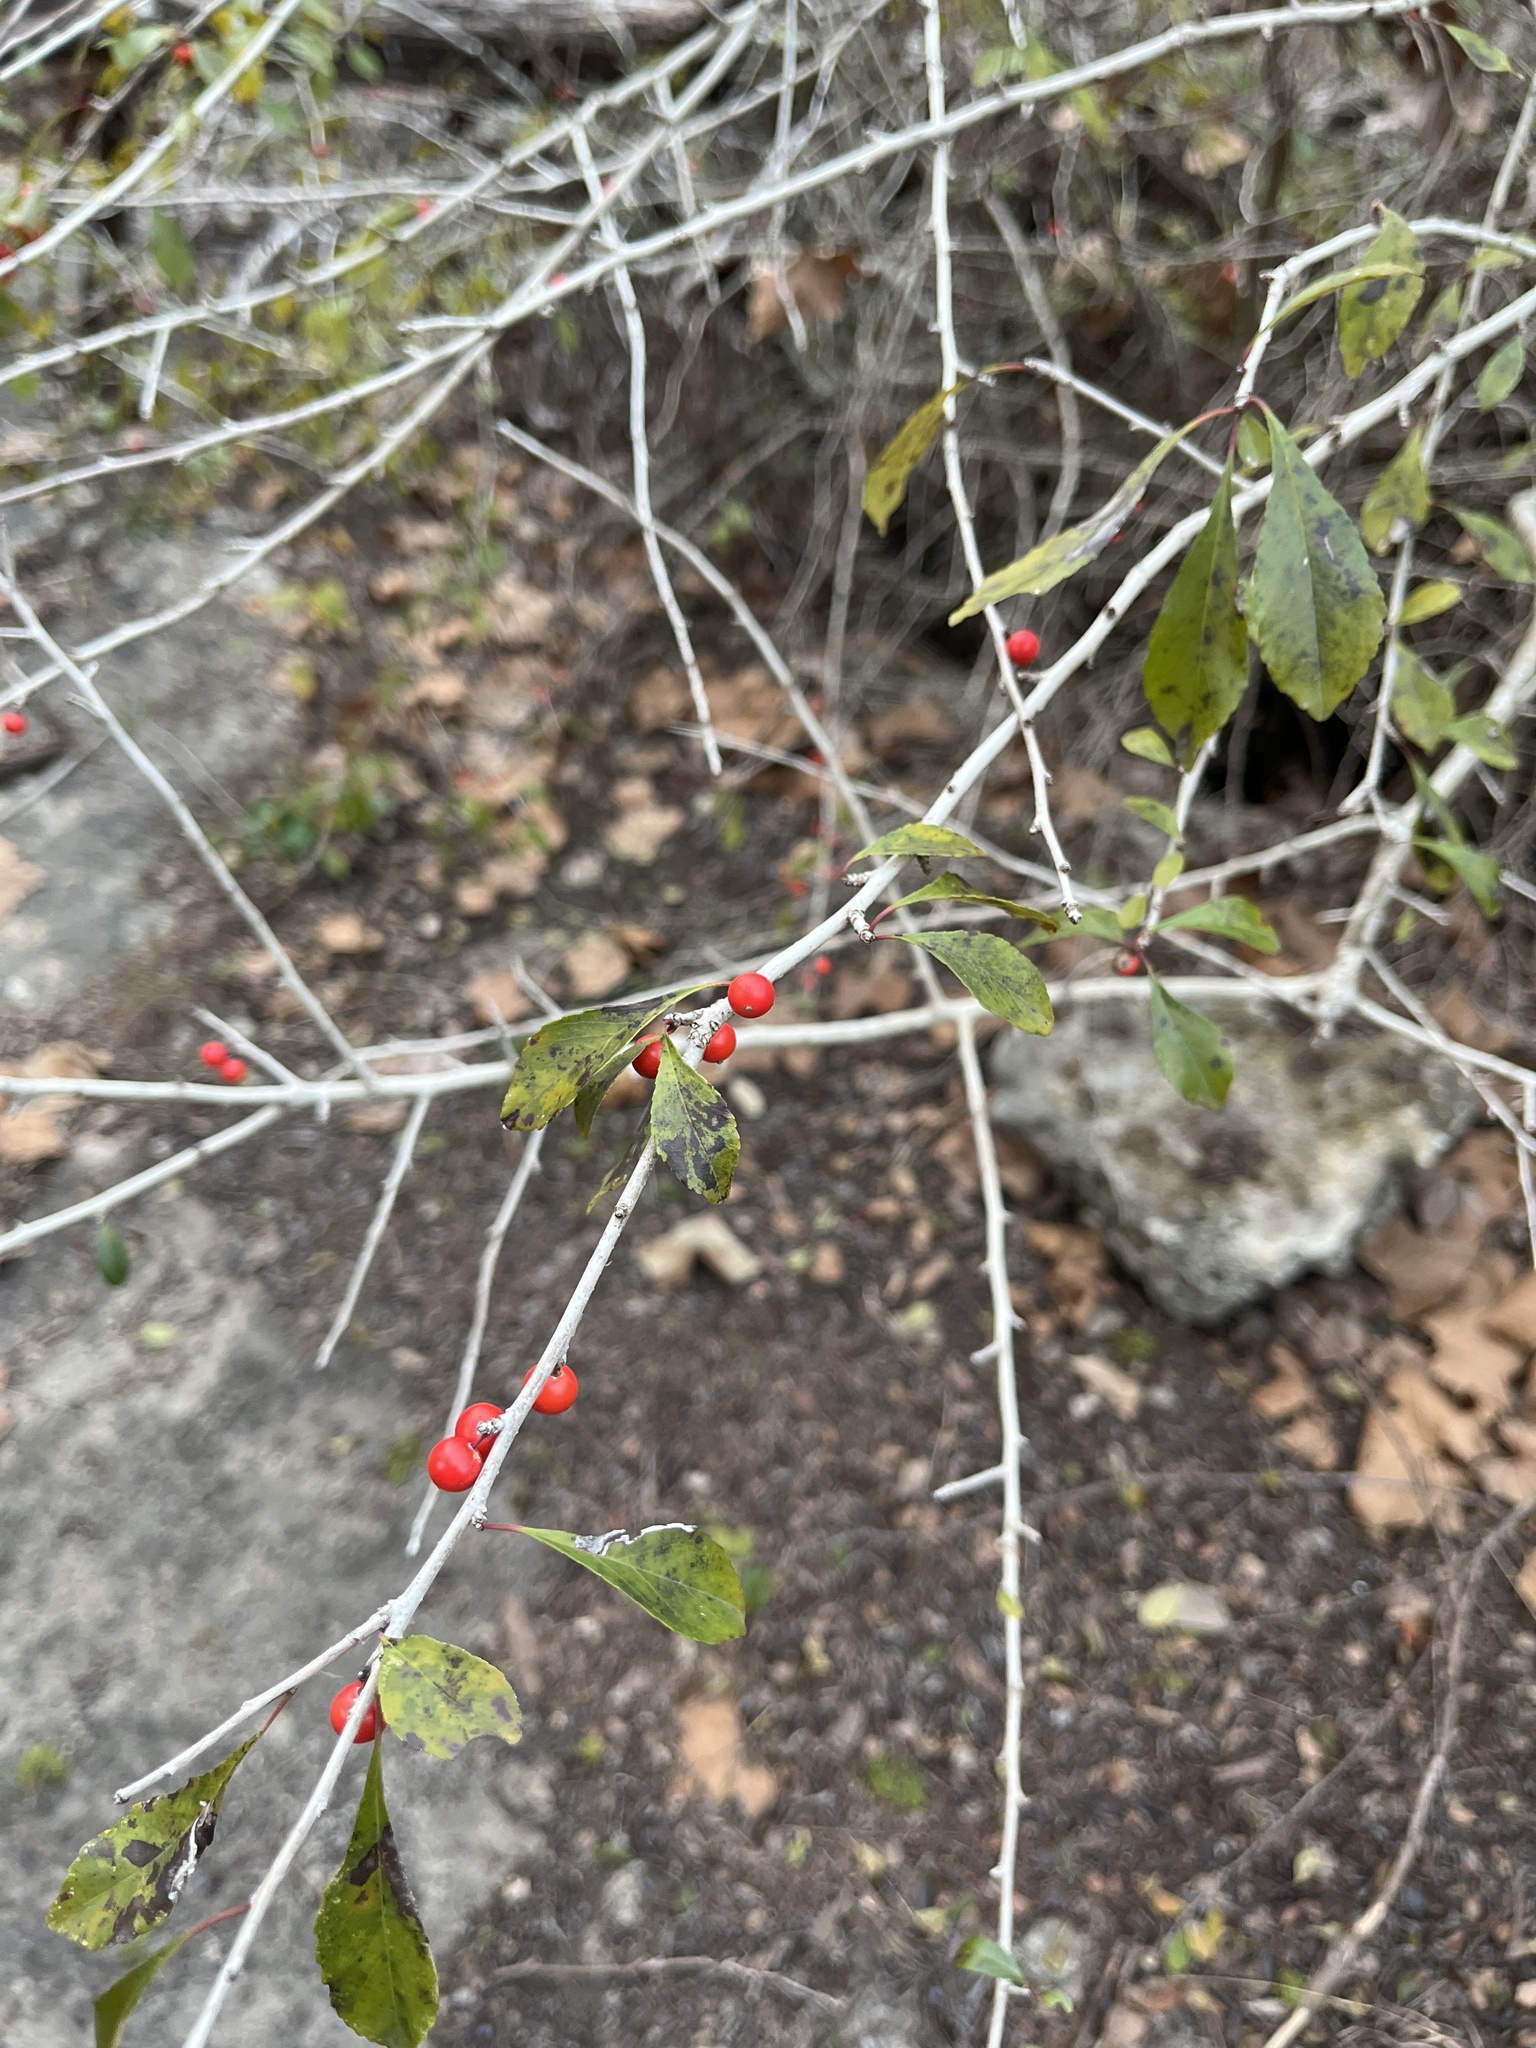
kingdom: Plantae
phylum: Tracheophyta
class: Magnoliopsida
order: Aquifoliales
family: Aquifoliaceae
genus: Ilex
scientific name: Ilex decidua
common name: Possum-haw
